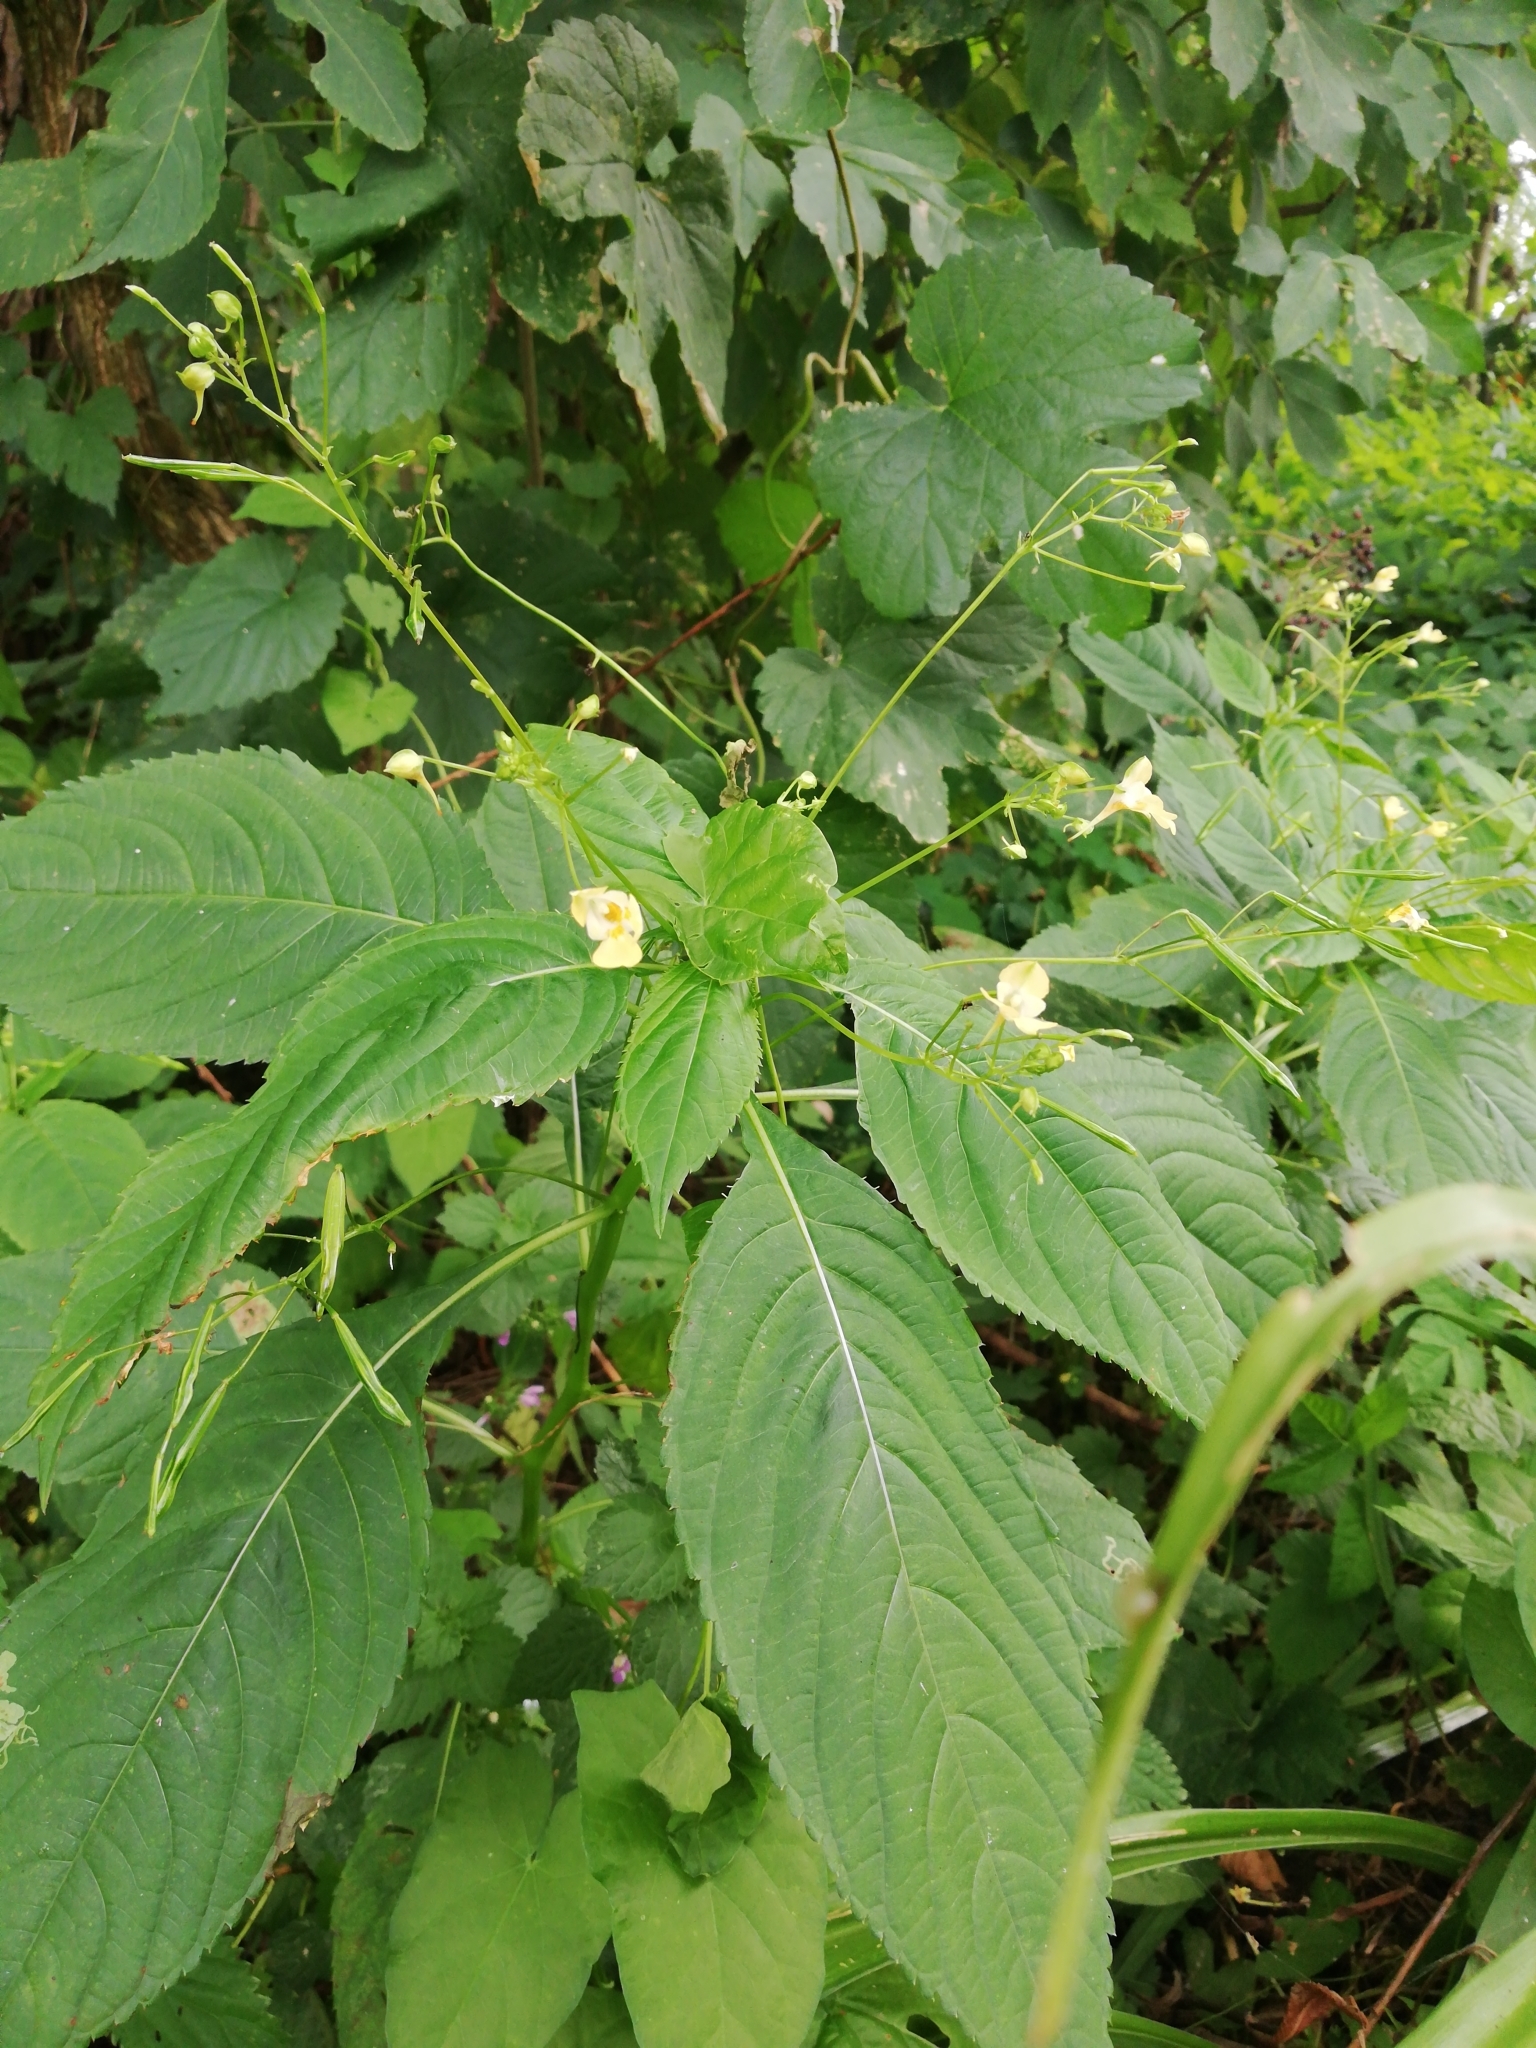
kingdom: Plantae
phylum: Tracheophyta
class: Magnoliopsida
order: Ericales
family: Balsaminaceae
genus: Impatiens
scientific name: Impatiens parviflora
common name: Small balsam
